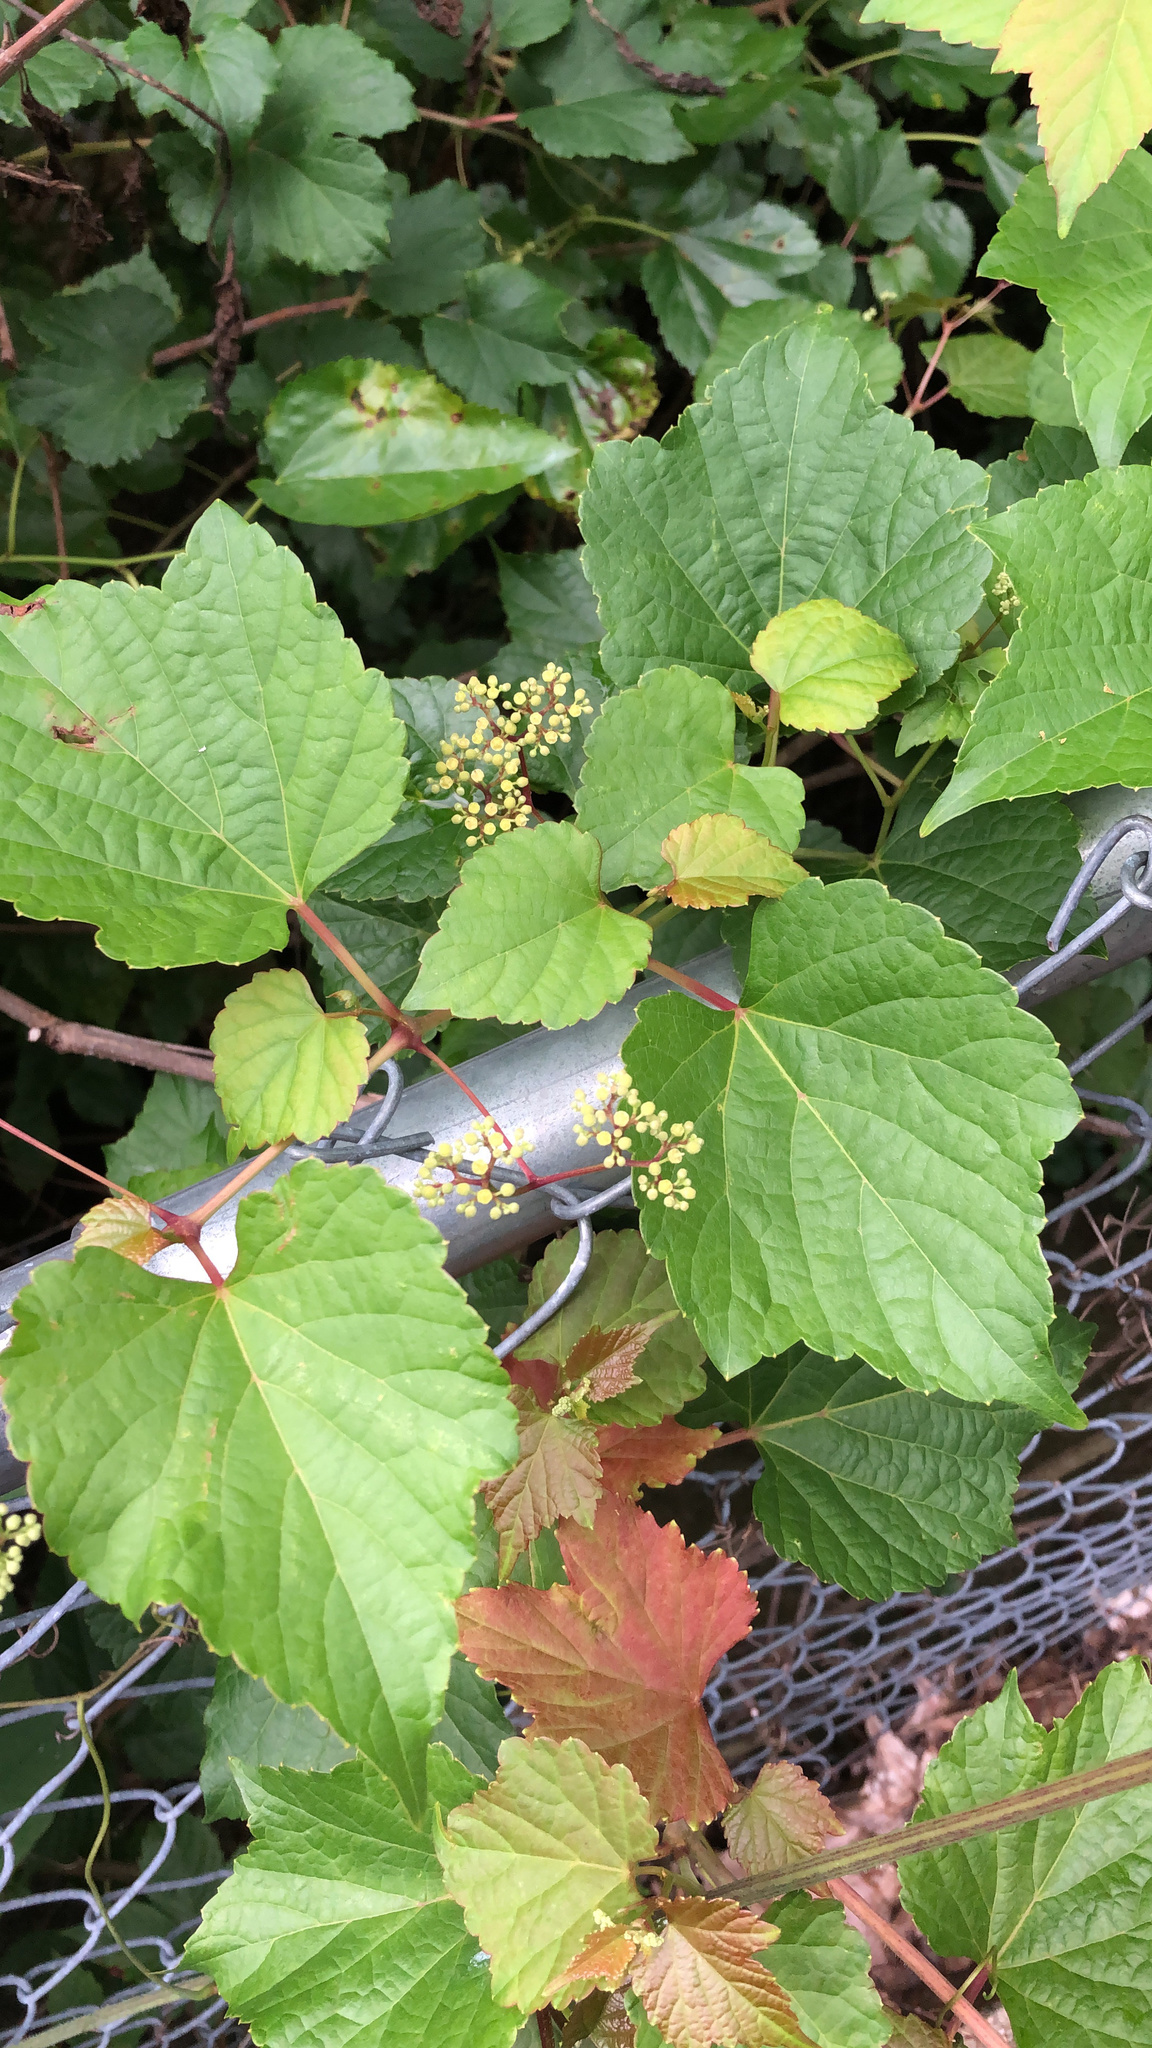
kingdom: Plantae
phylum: Tracheophyta
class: Magnoliopsida
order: Vitales
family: Vitaceae
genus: Ampelopsis
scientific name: Ampelopsis glandulosa
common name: Amur peppervine
